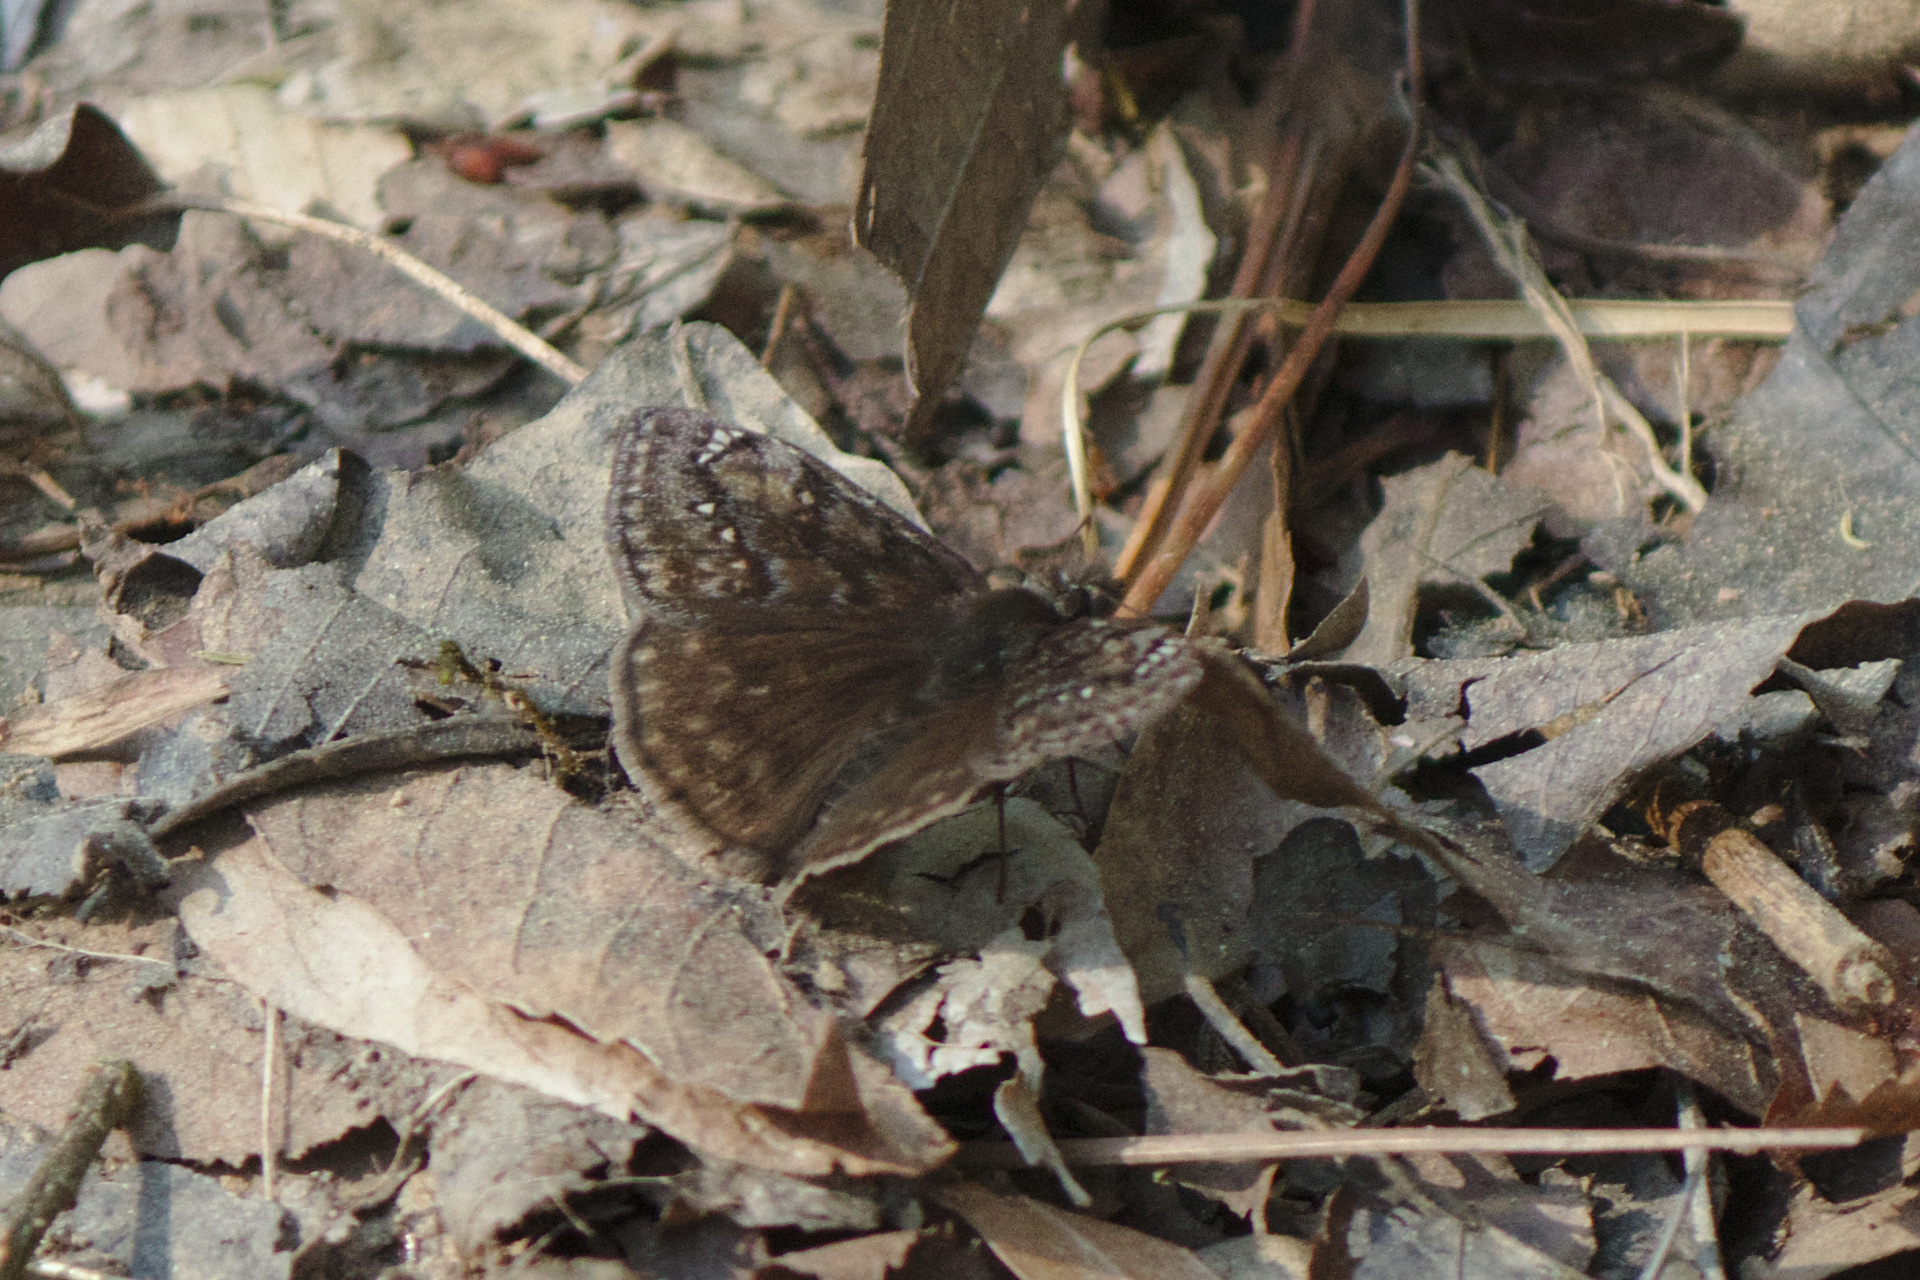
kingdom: Animalia
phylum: Arthropoda
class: Insecta
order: Lepidoptera
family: Hesperiidae
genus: Erynnis
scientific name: Erynnis juvenalis
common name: Juvenal's duskywing
